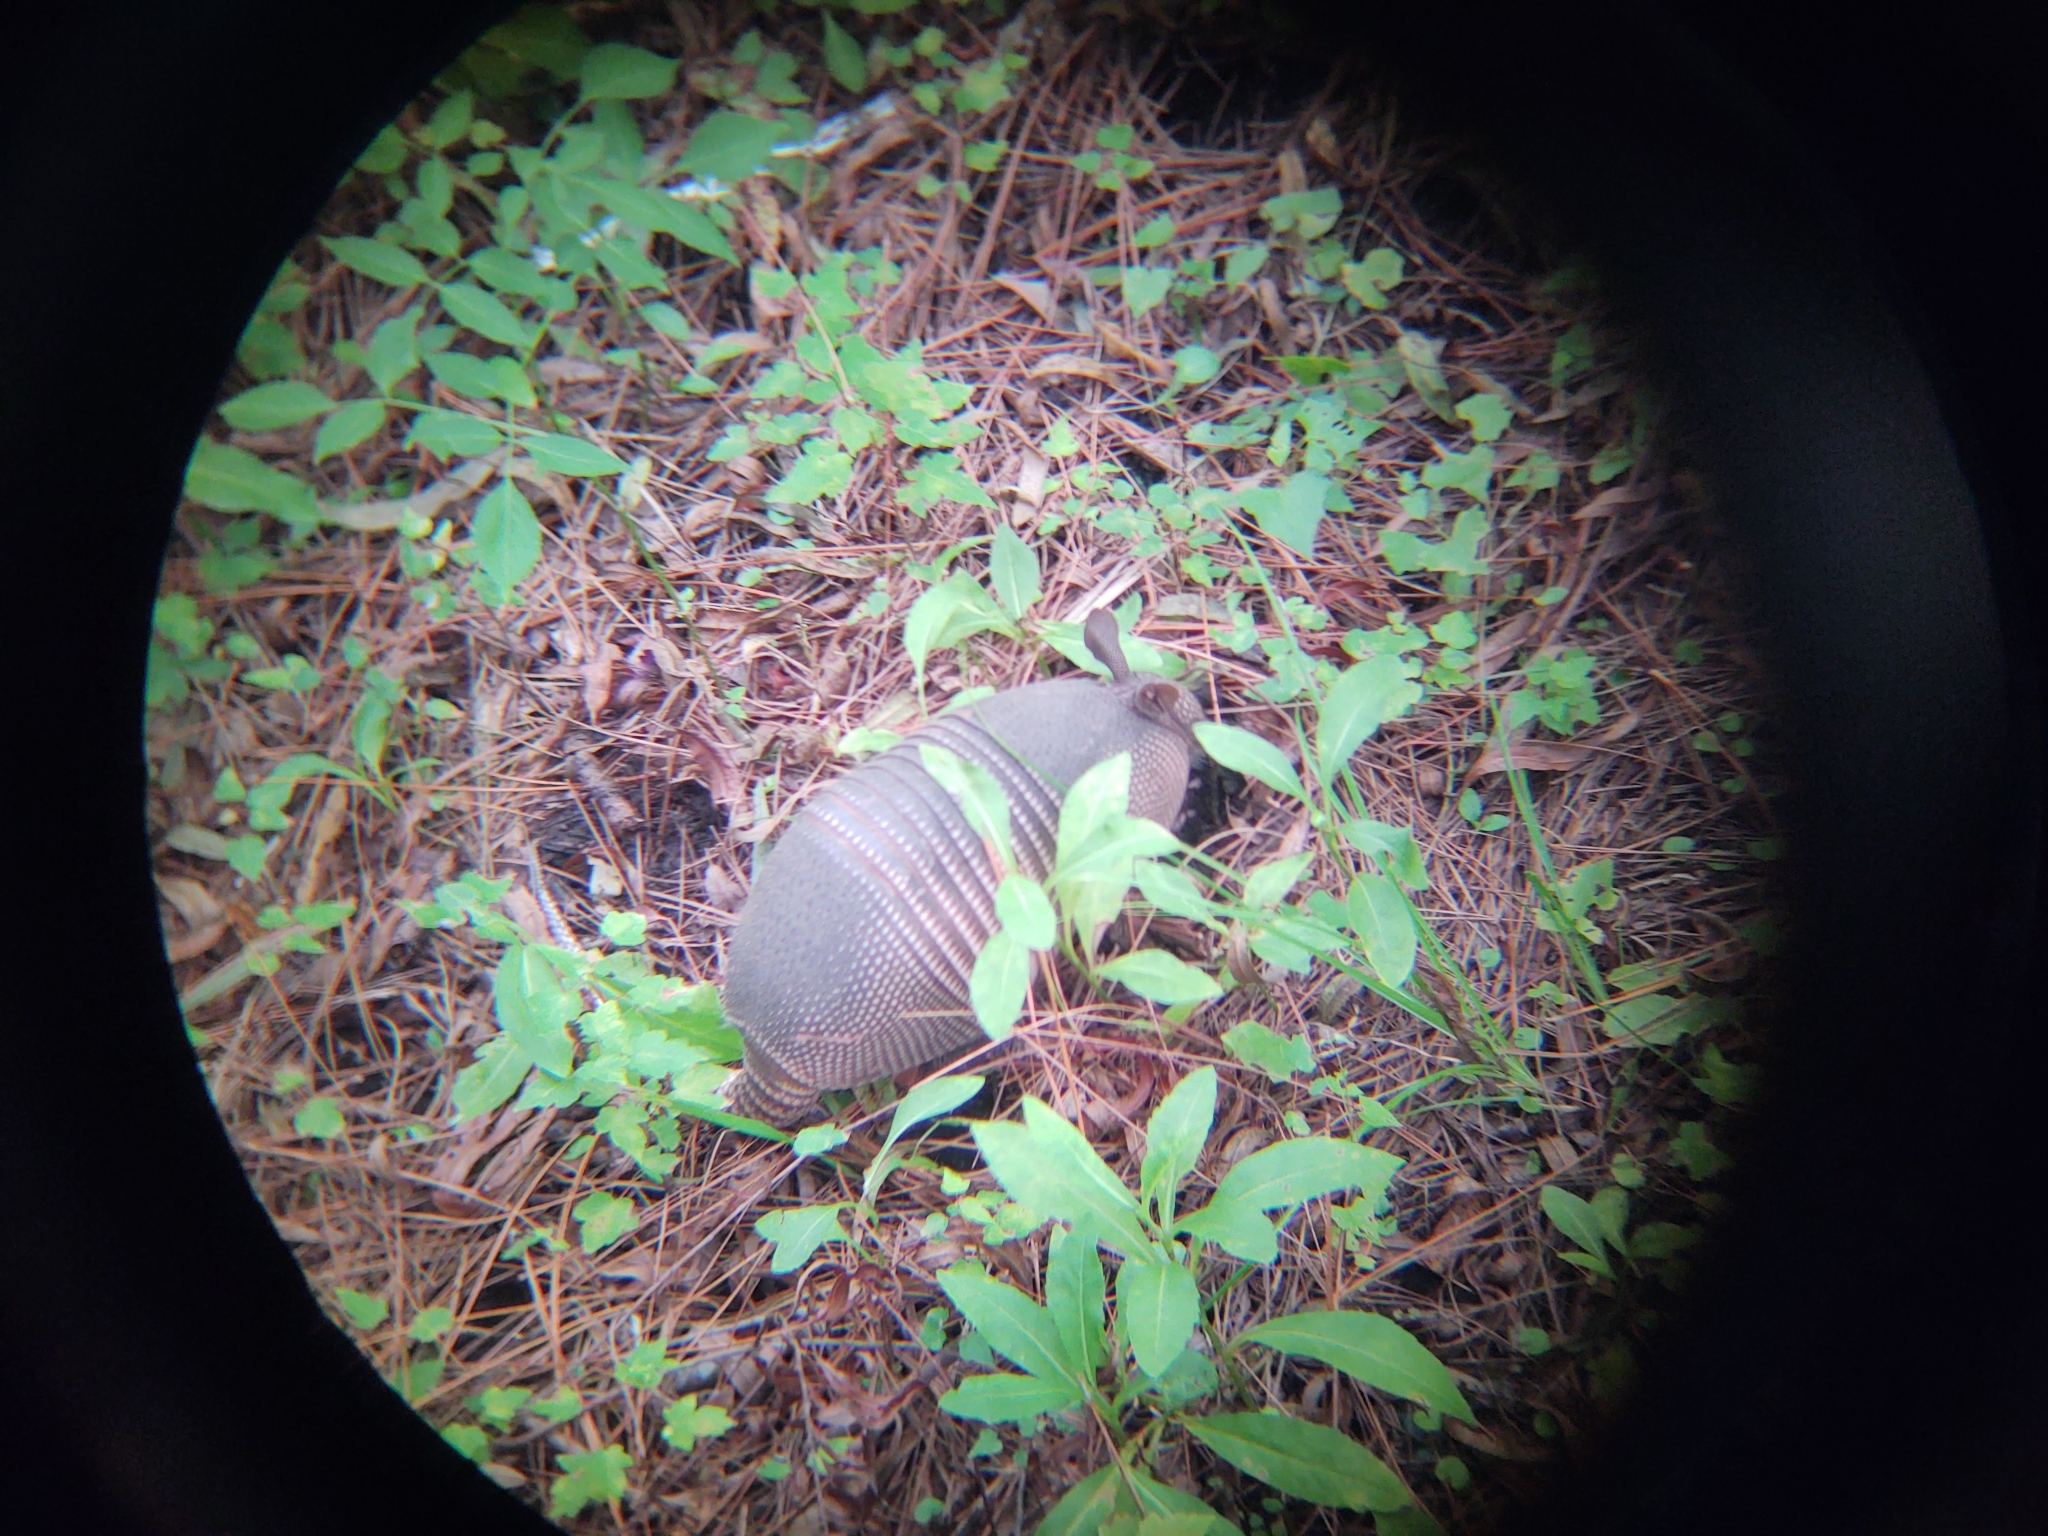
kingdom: Animalia
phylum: Chordata
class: Mammalia
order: Cingulata
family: Dasypodidae
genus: Dasypus
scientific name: Dasypus novemcinctus
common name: Nine-banded armadillo
